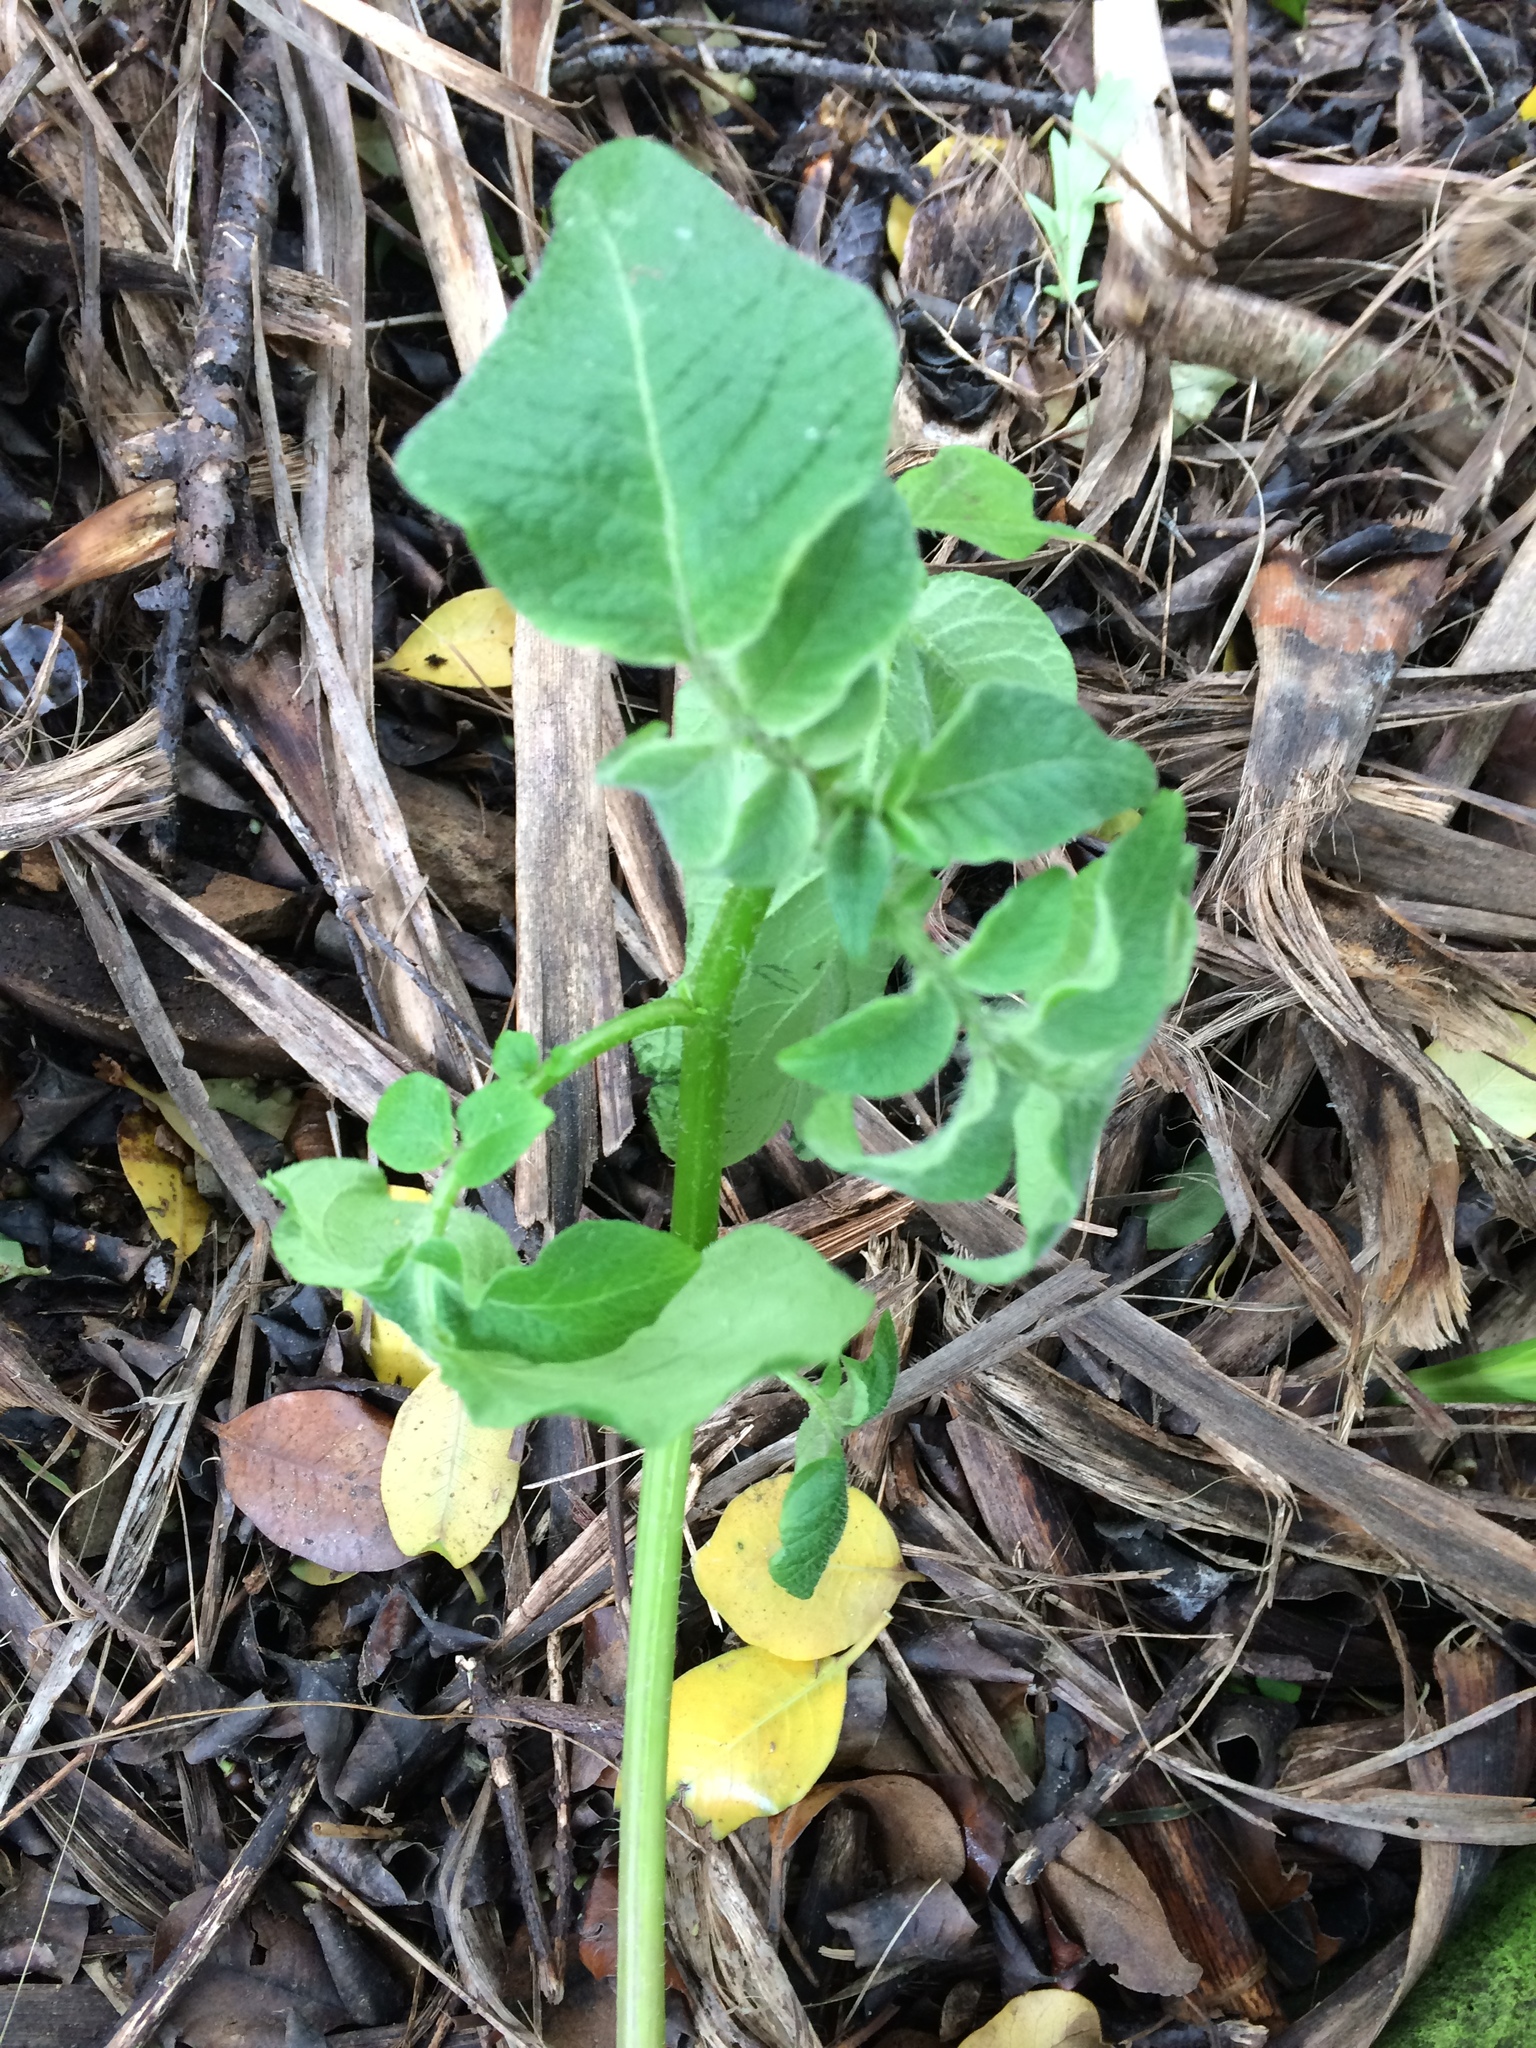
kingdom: Plantae
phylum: Tracheophyta
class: Magnoliopsida
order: Solanales
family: Solanaceae
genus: Solanum
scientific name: Solanum tuberosum
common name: Potato
